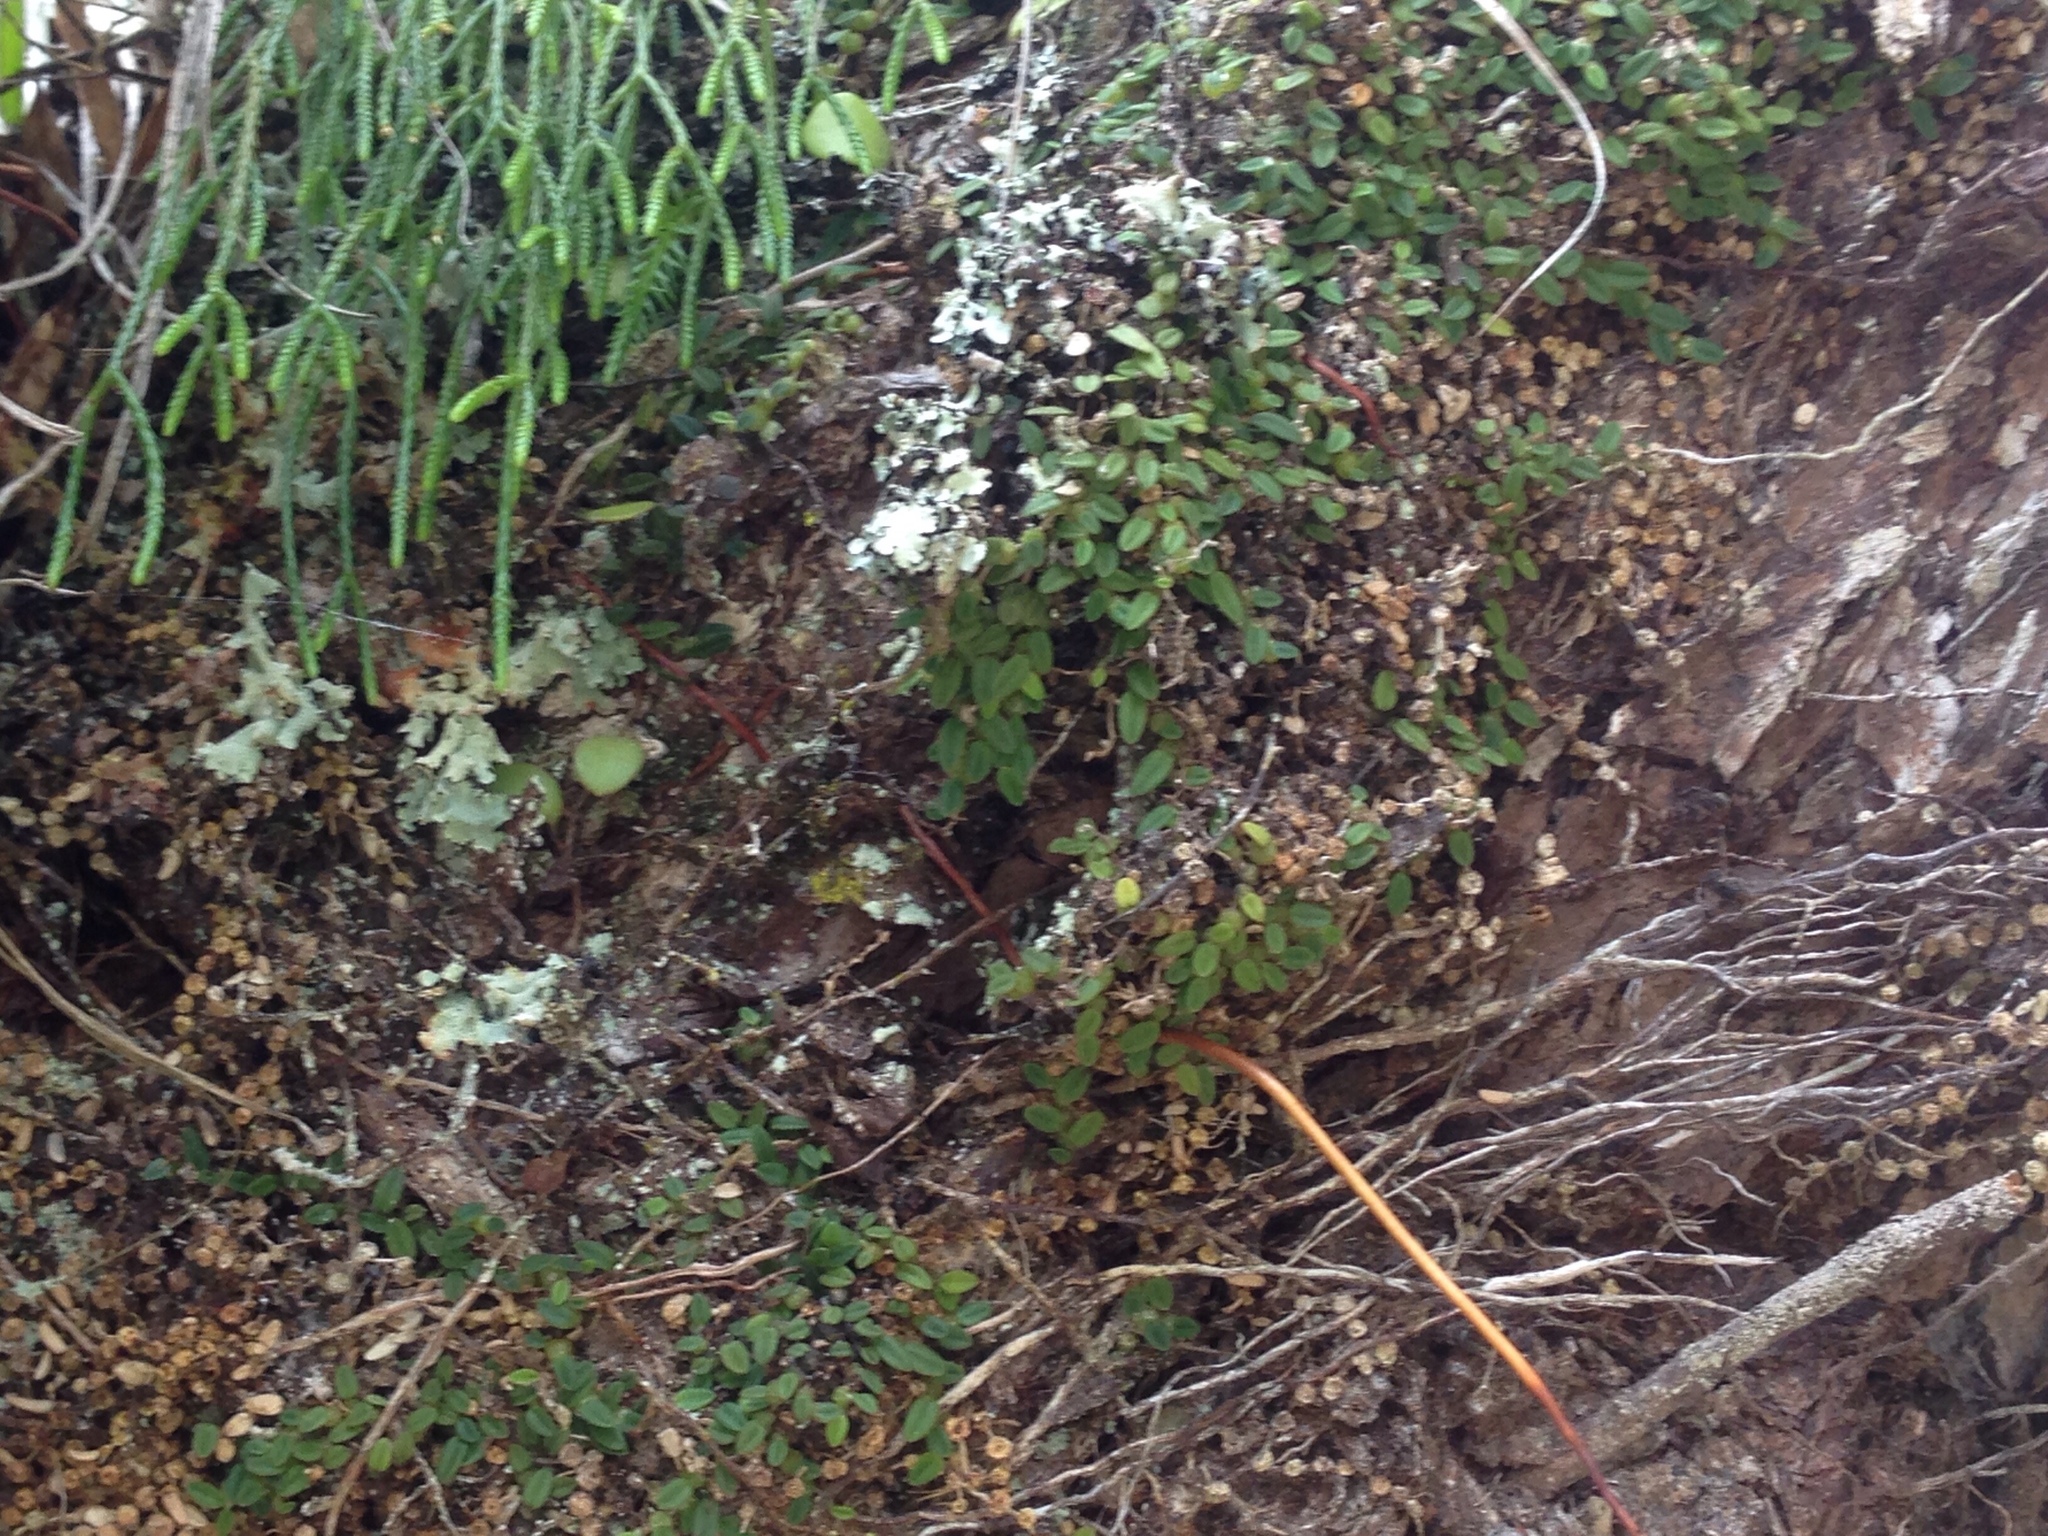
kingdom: Plantae
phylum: Tracheophyta
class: Liliopsida
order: Asparagales
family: Orchidaceae
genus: Bulbophyllum
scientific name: Bulbophyllum pygmaeum
